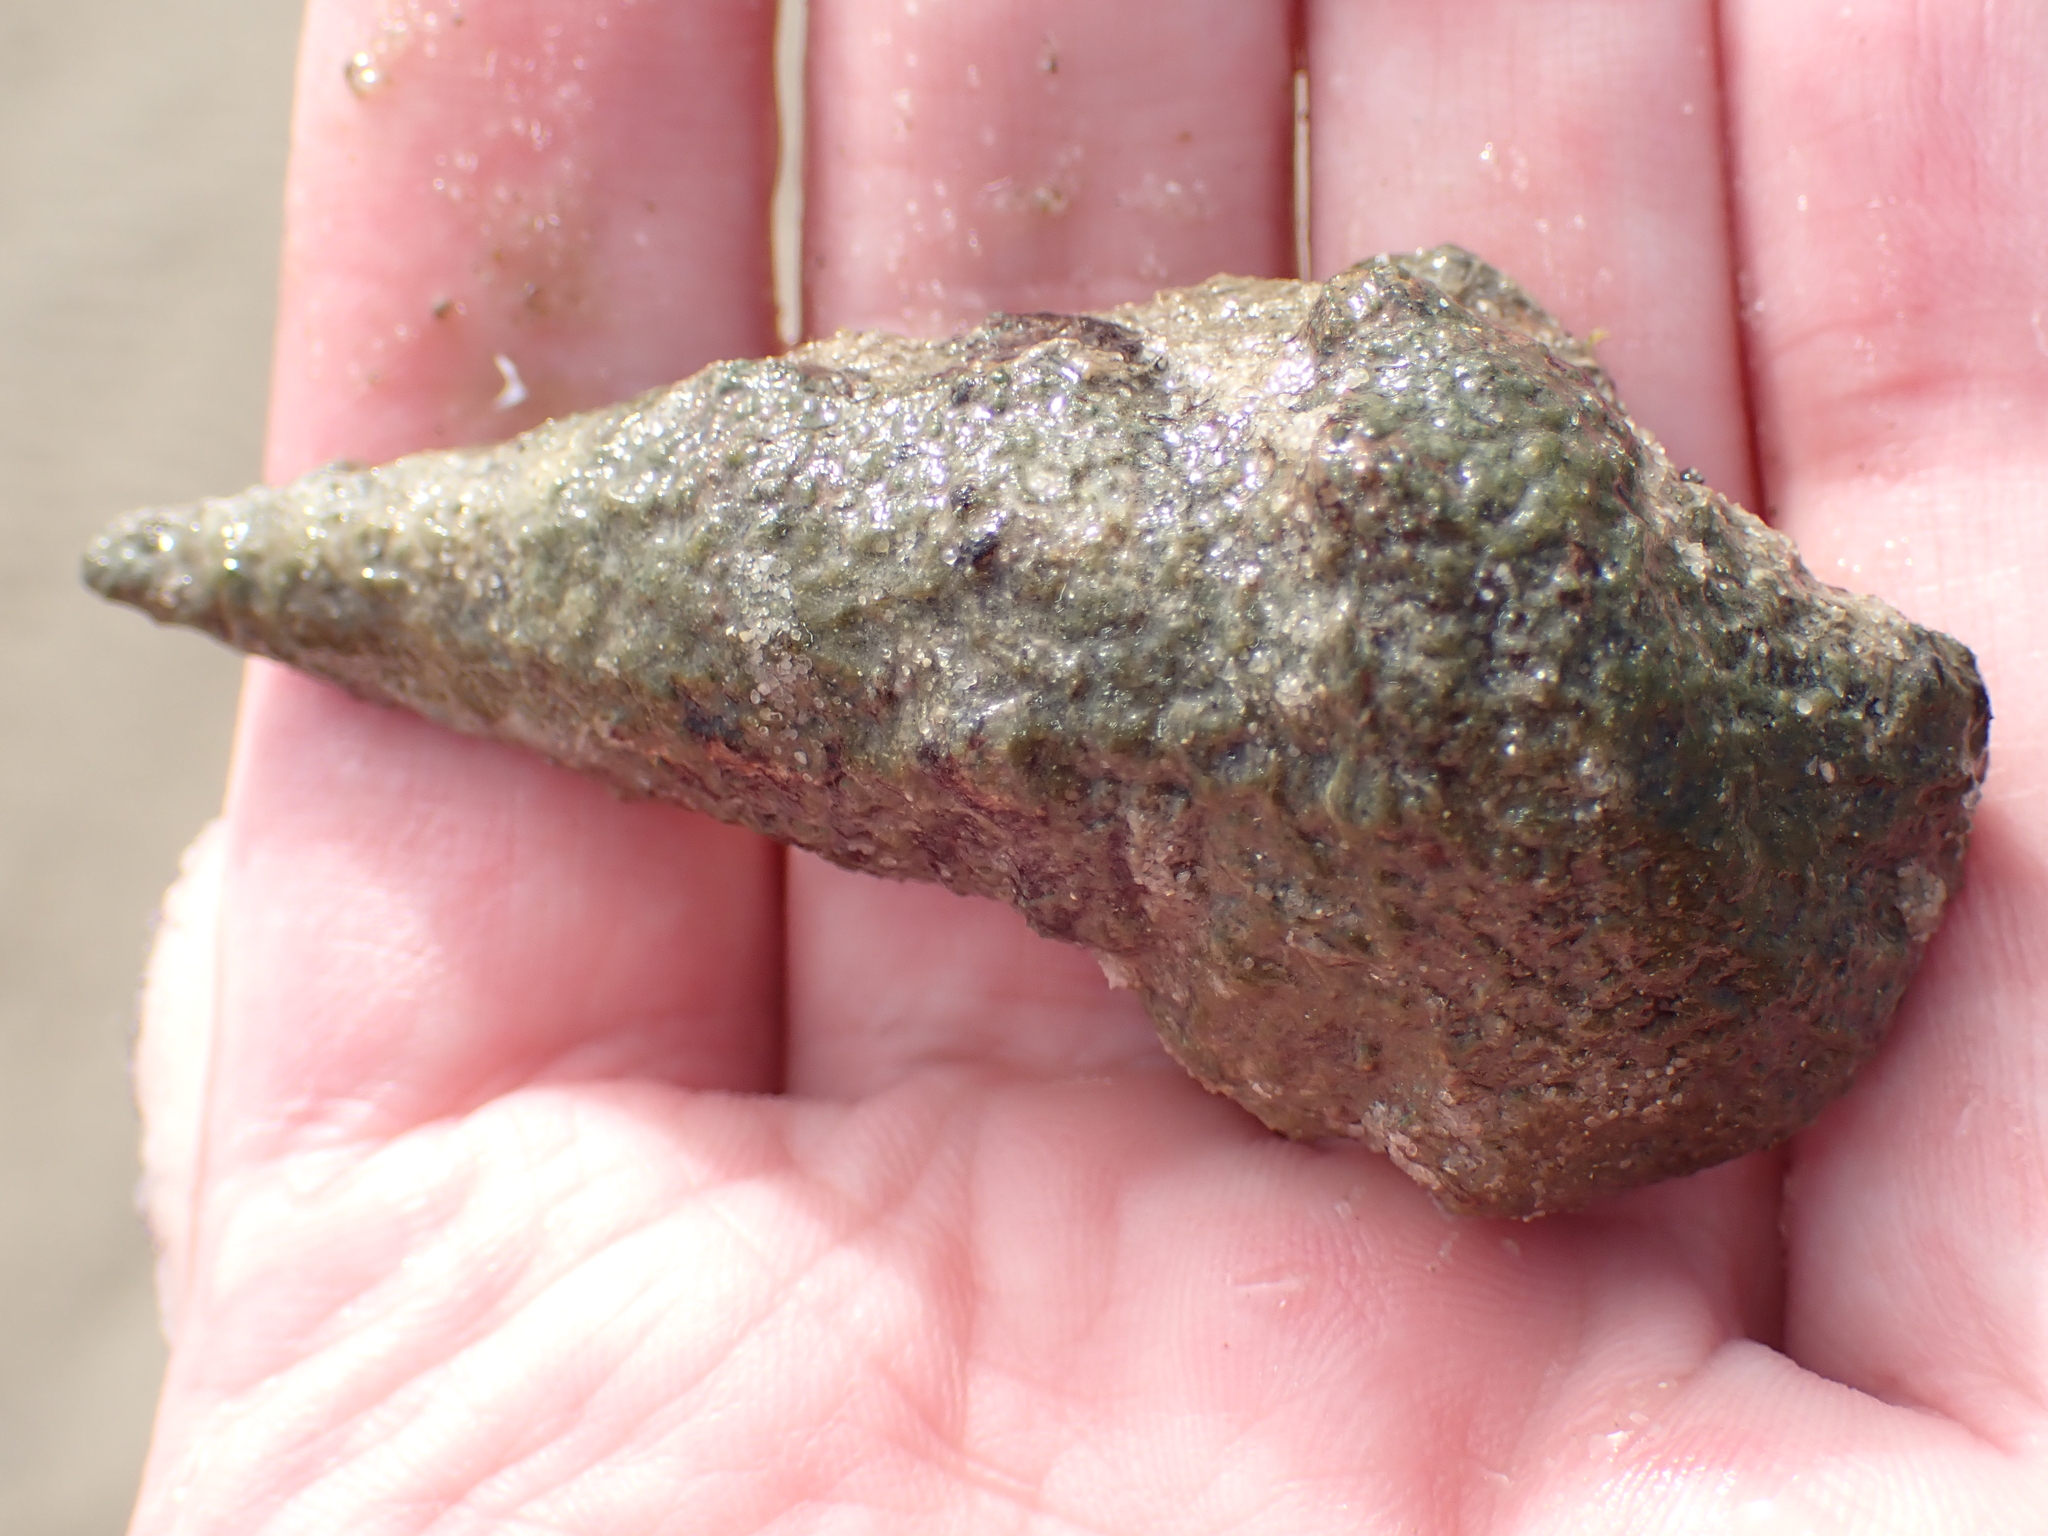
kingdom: Animalia
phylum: Mollusca
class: Gastropoda
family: Batillariidae
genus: Pyrazus
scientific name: Pyrazus ebeninus
